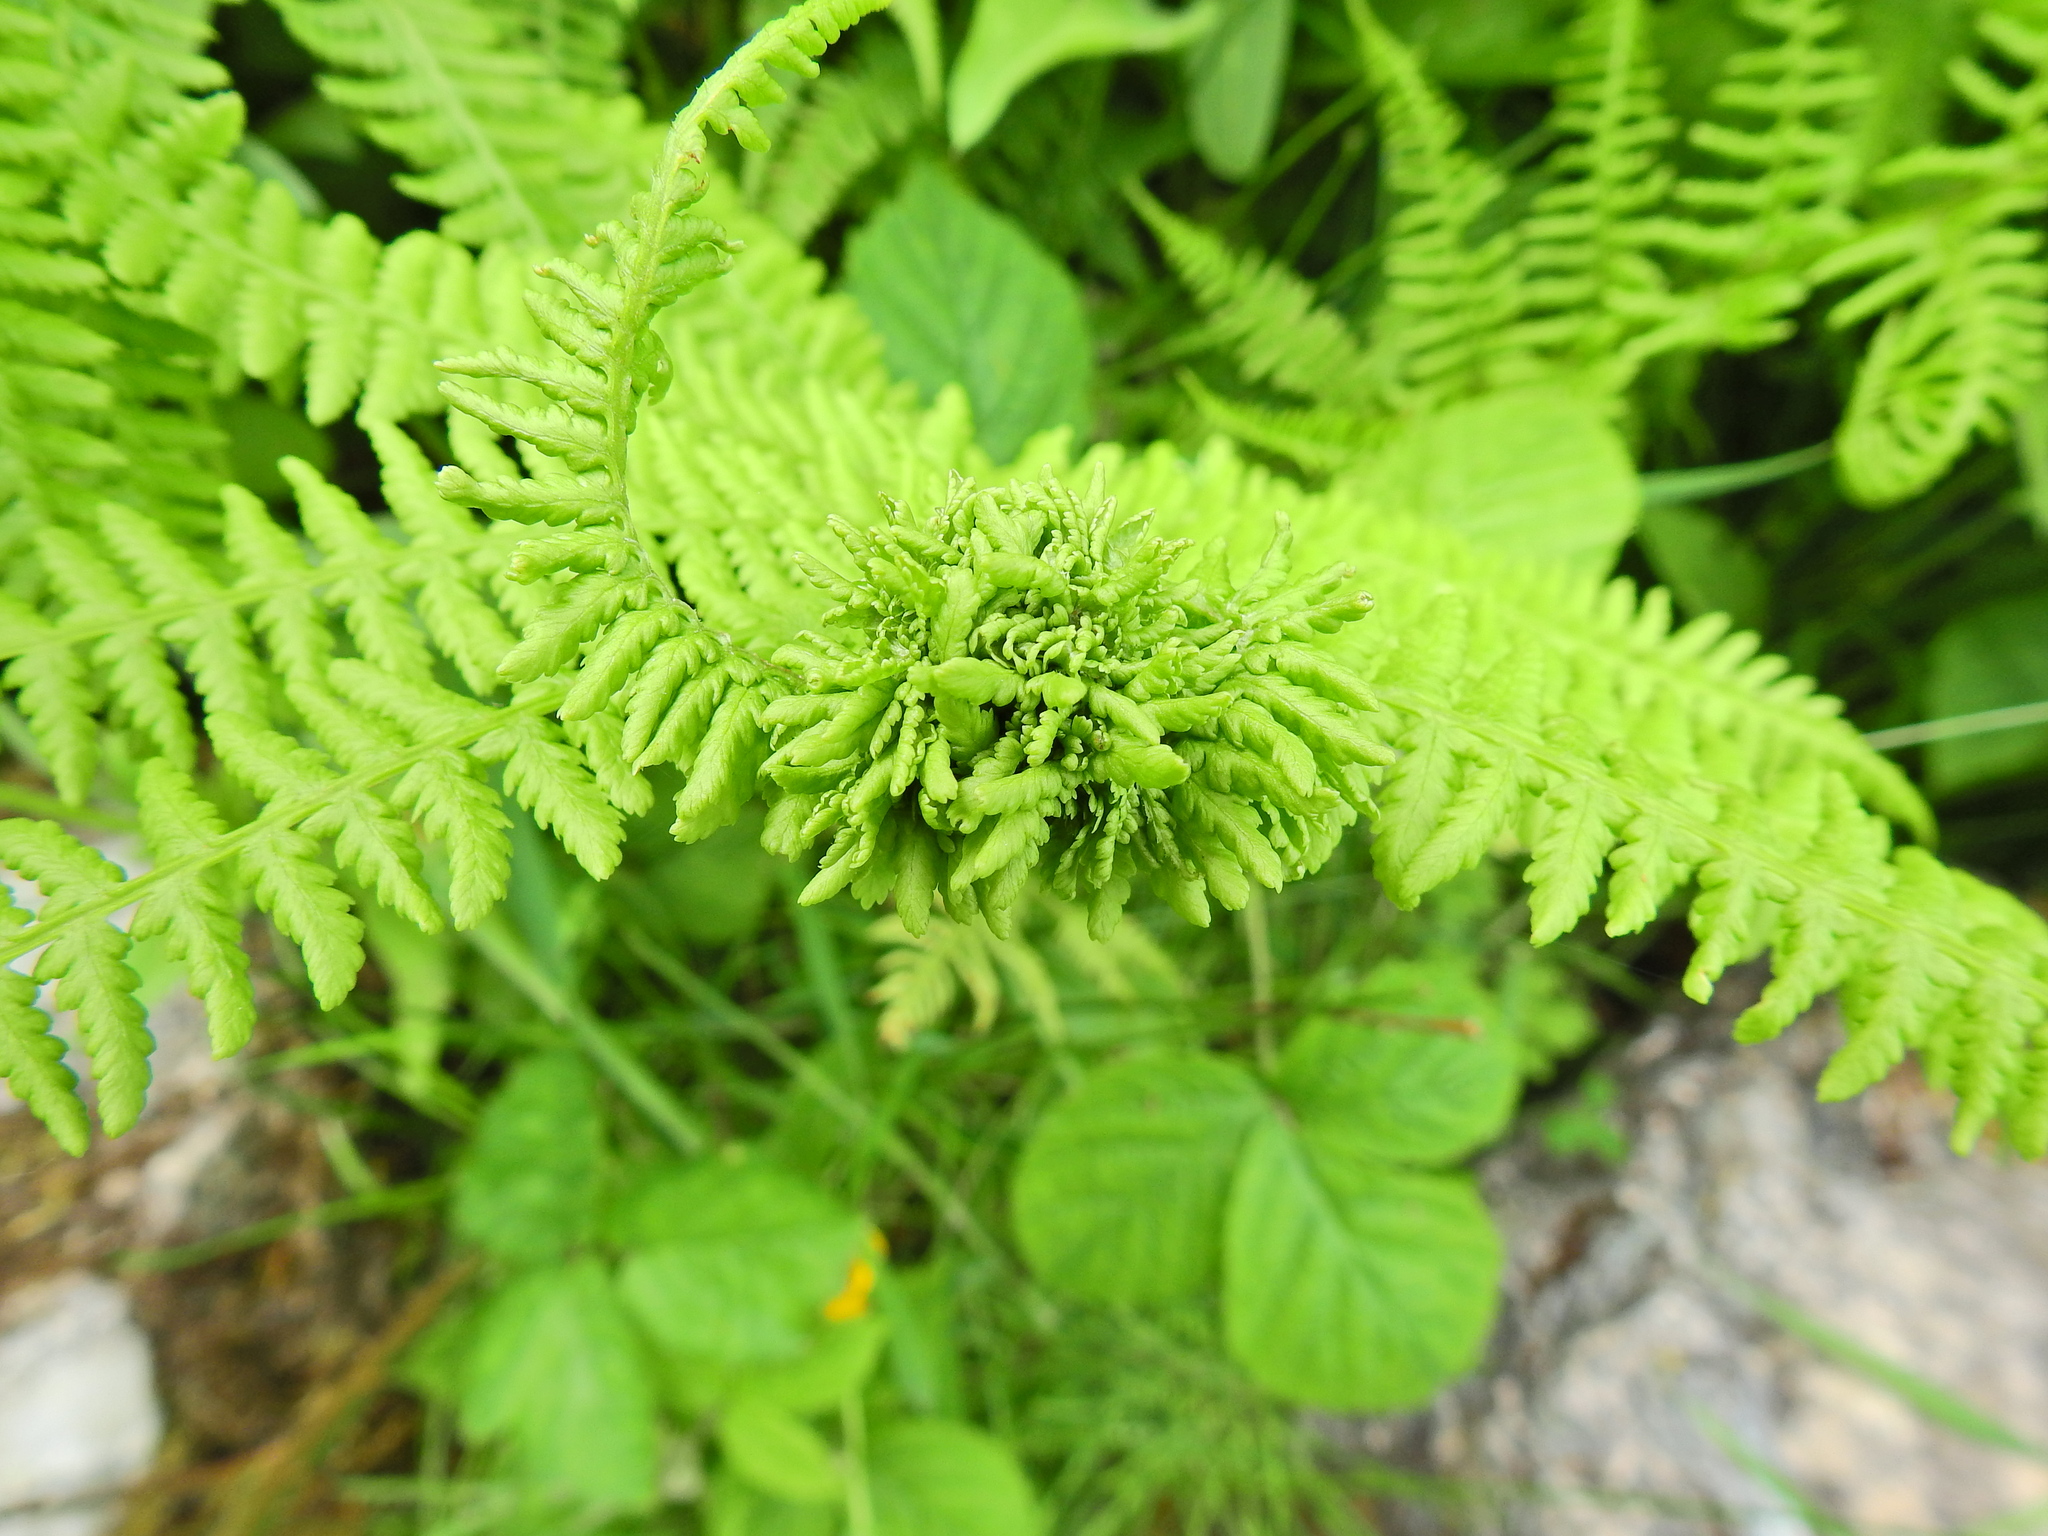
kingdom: Animalia
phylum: Arthropoda
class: Insecta
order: Diptera
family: Anthomyiidae
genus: Chirosia
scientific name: Chirosia betuleti
